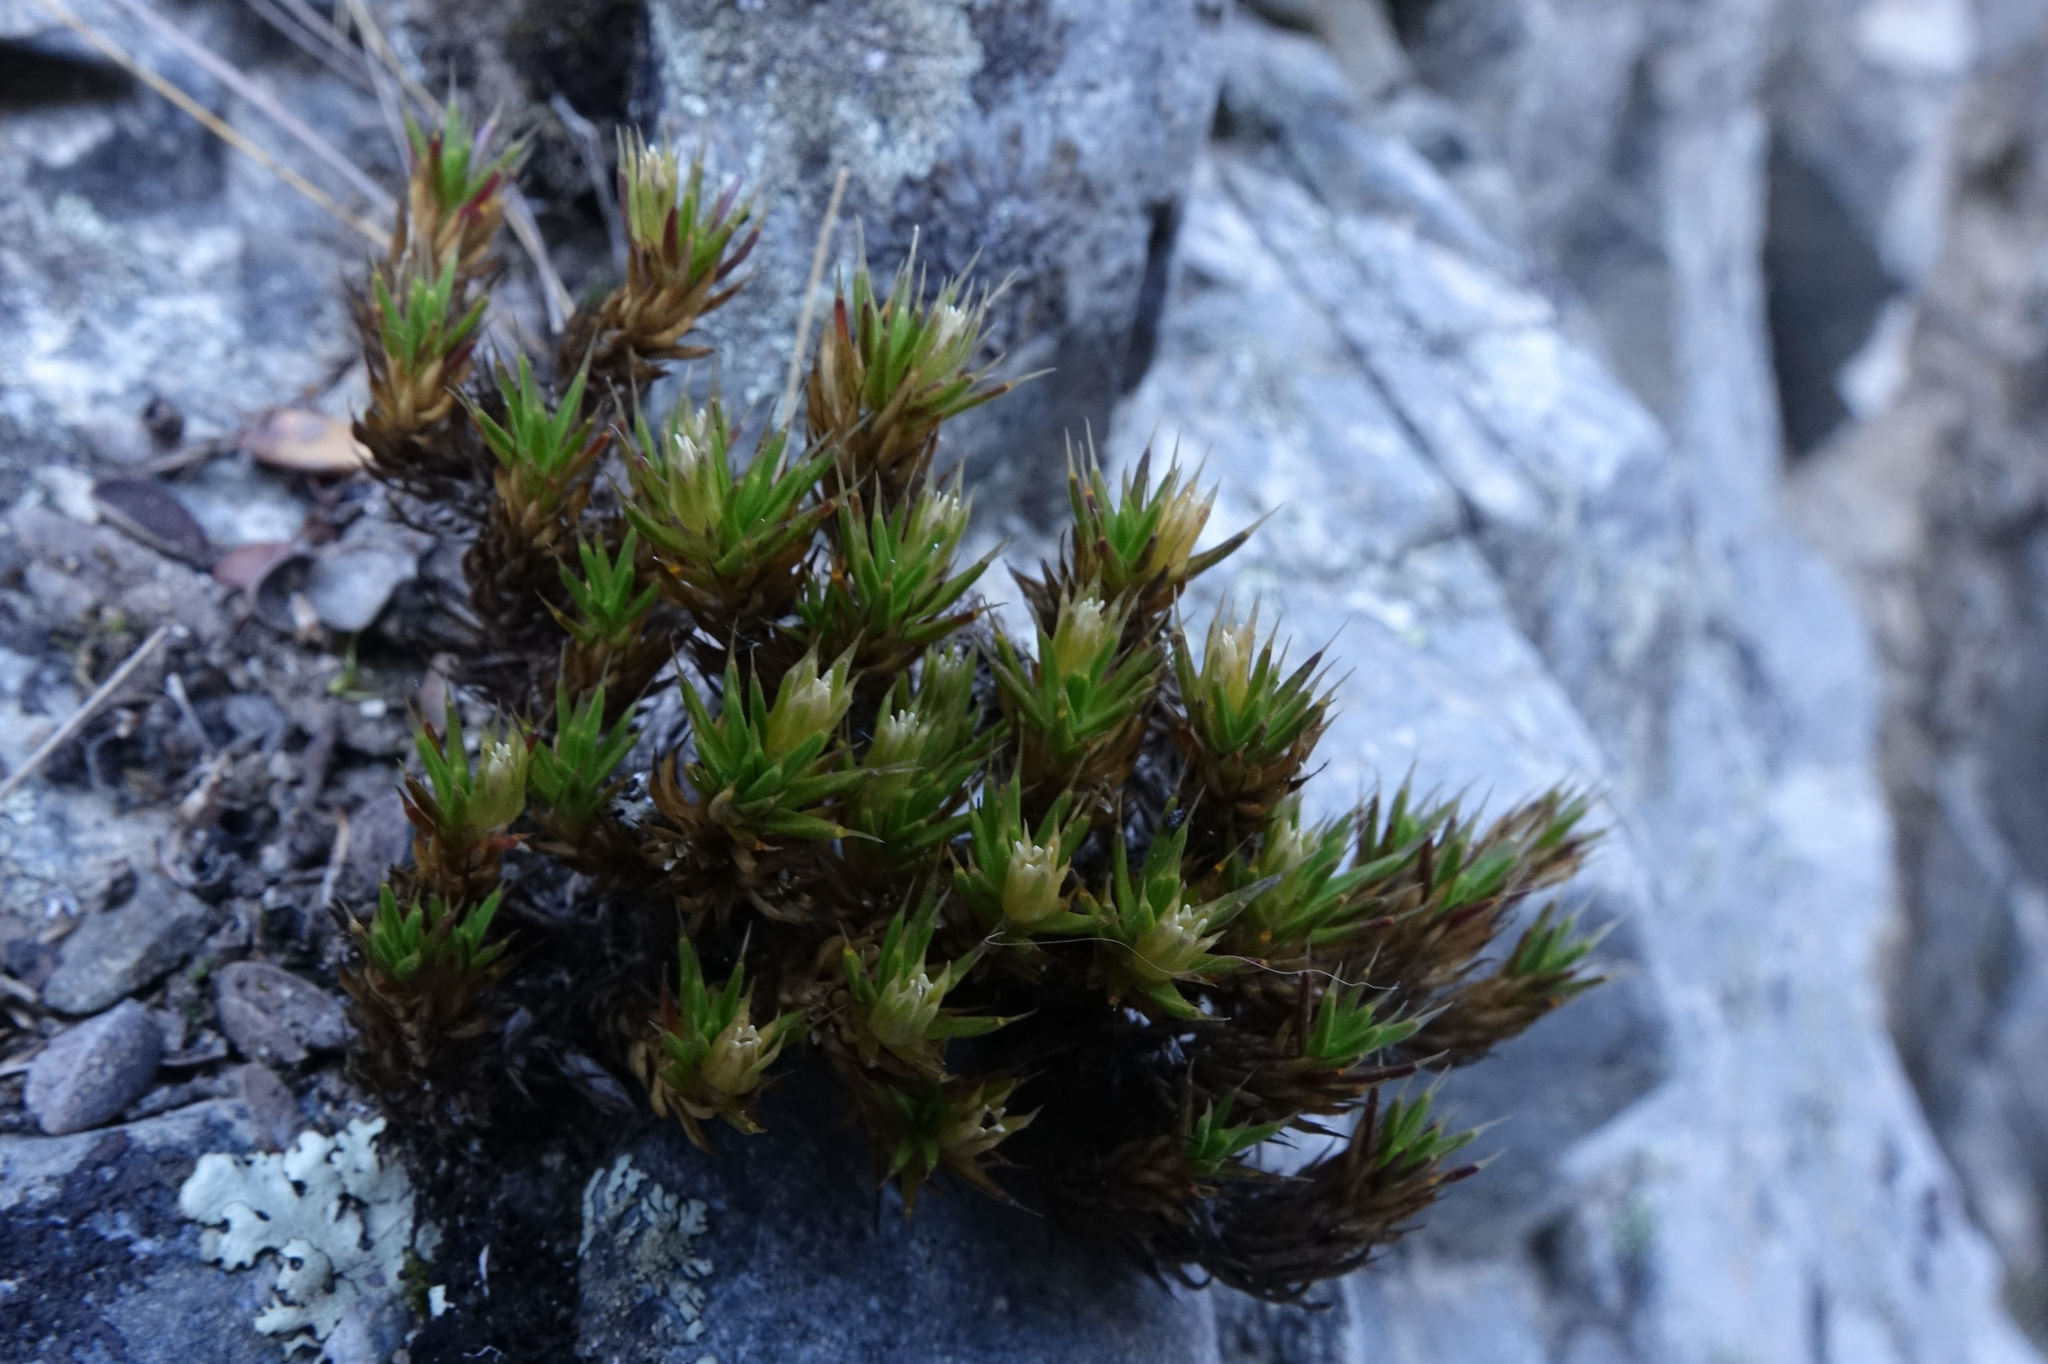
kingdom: Plantae
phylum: Tracheophyta
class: Magnoliopsida
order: Caryophyllales
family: Caryophyllaceae
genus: Colobanthus
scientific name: Colobanthus acicularis
